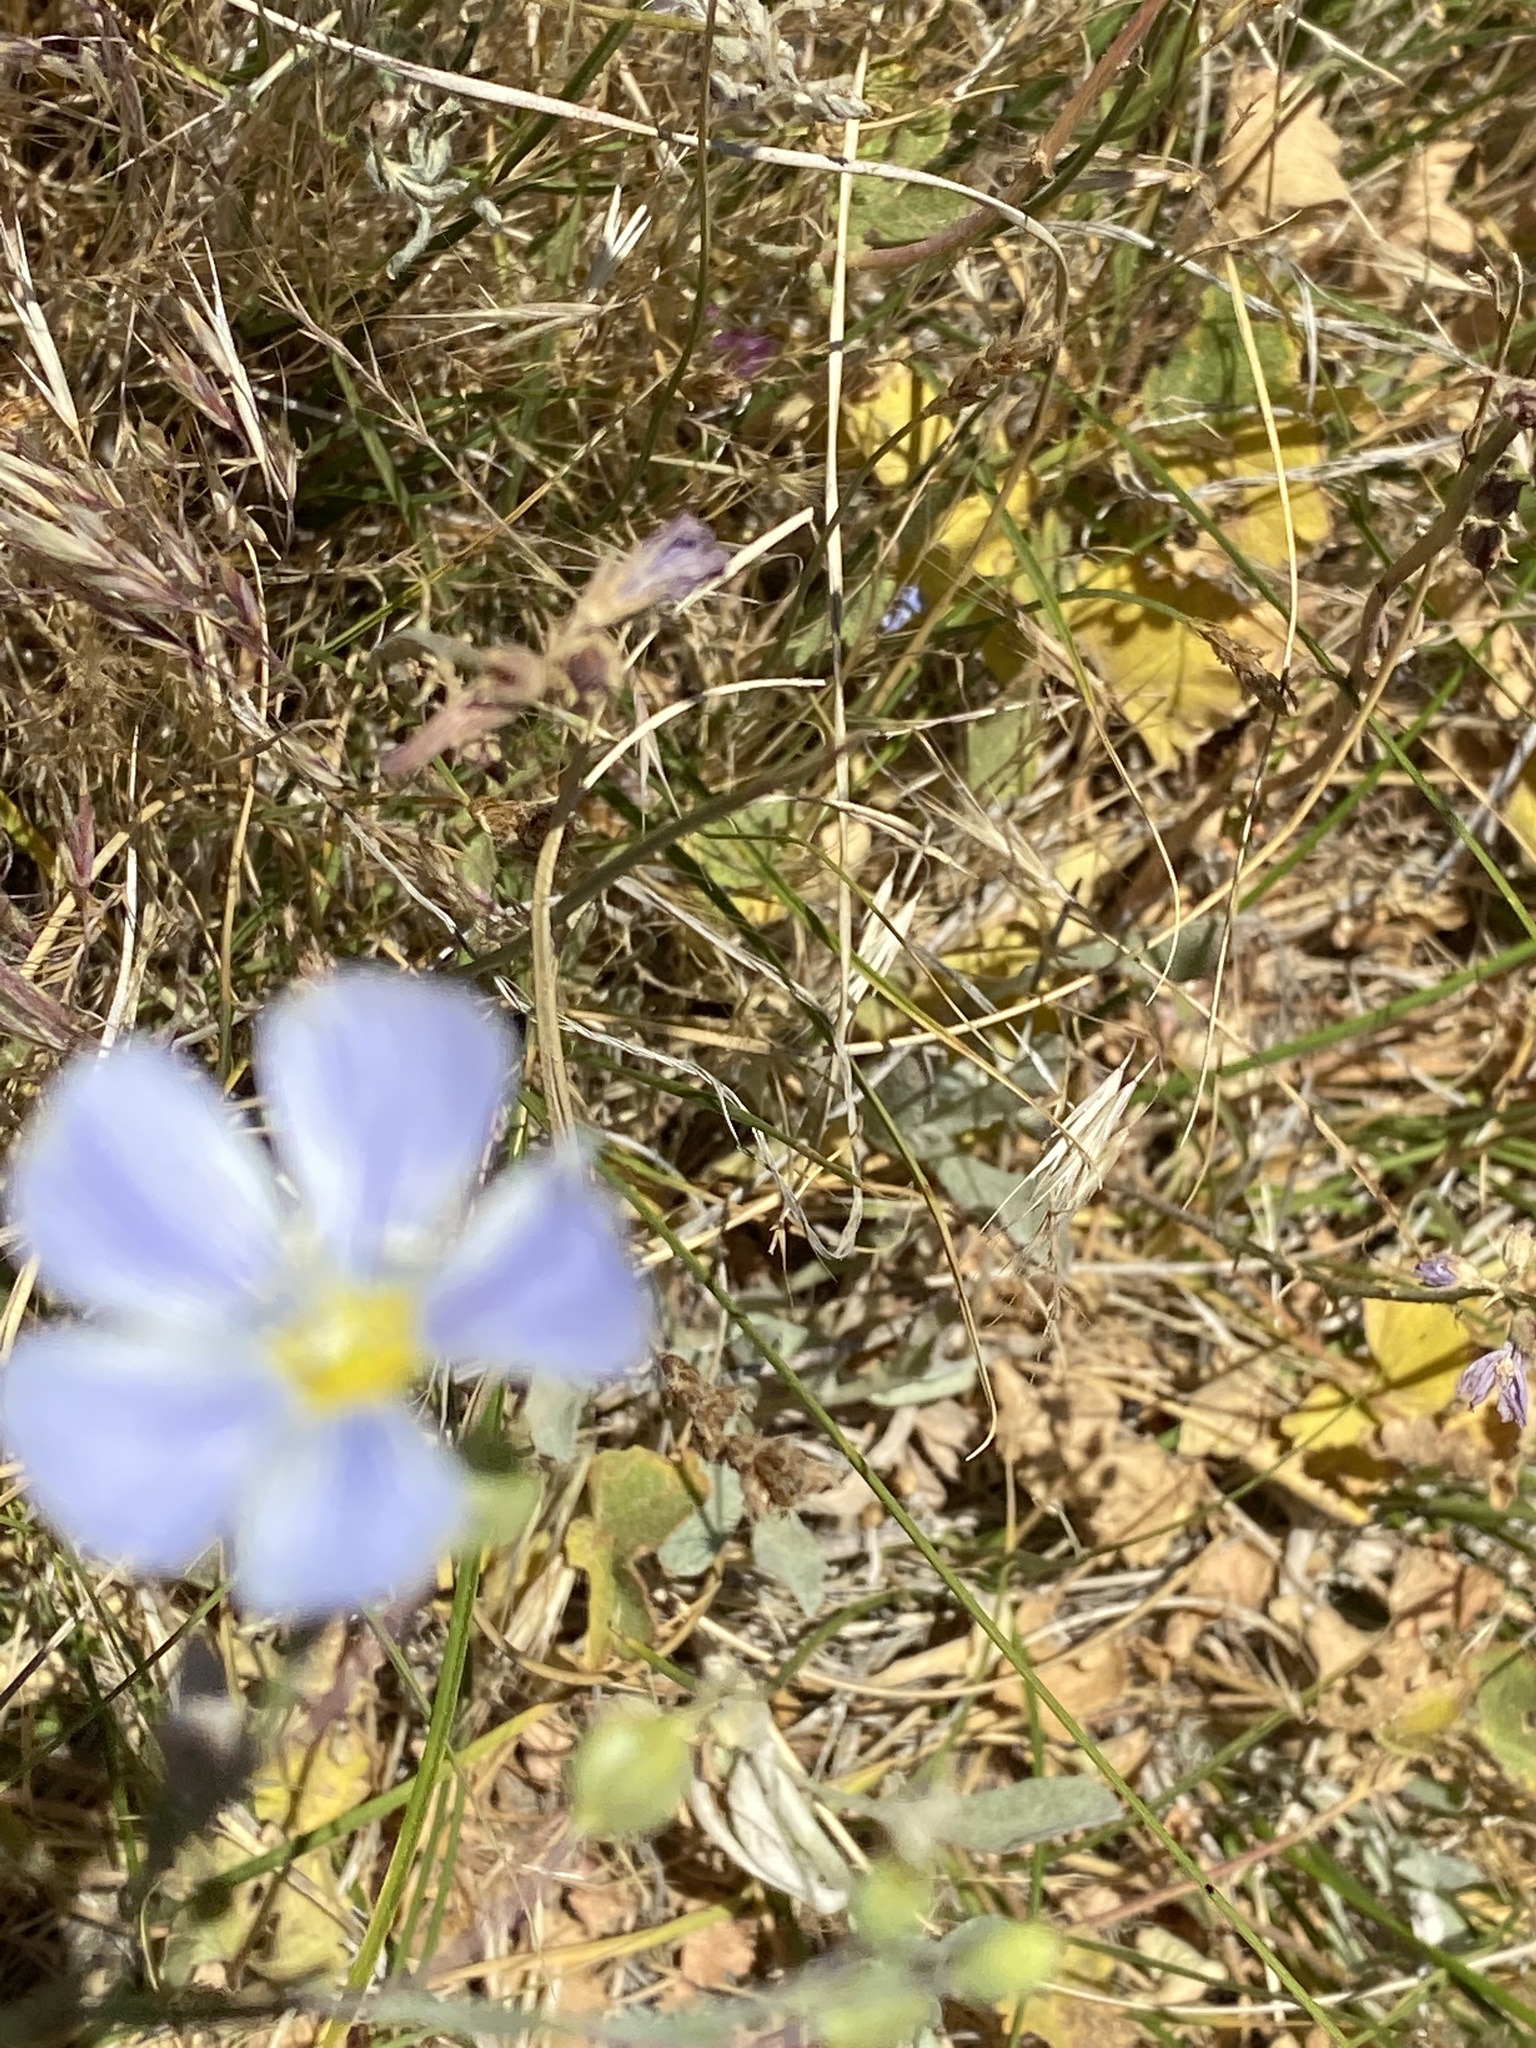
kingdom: Plantae
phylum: Tracheophyta
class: Magnoliopsida
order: Malpighiales
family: Linaceae
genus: Linum
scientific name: Linum lewisii
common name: Prairie flax
